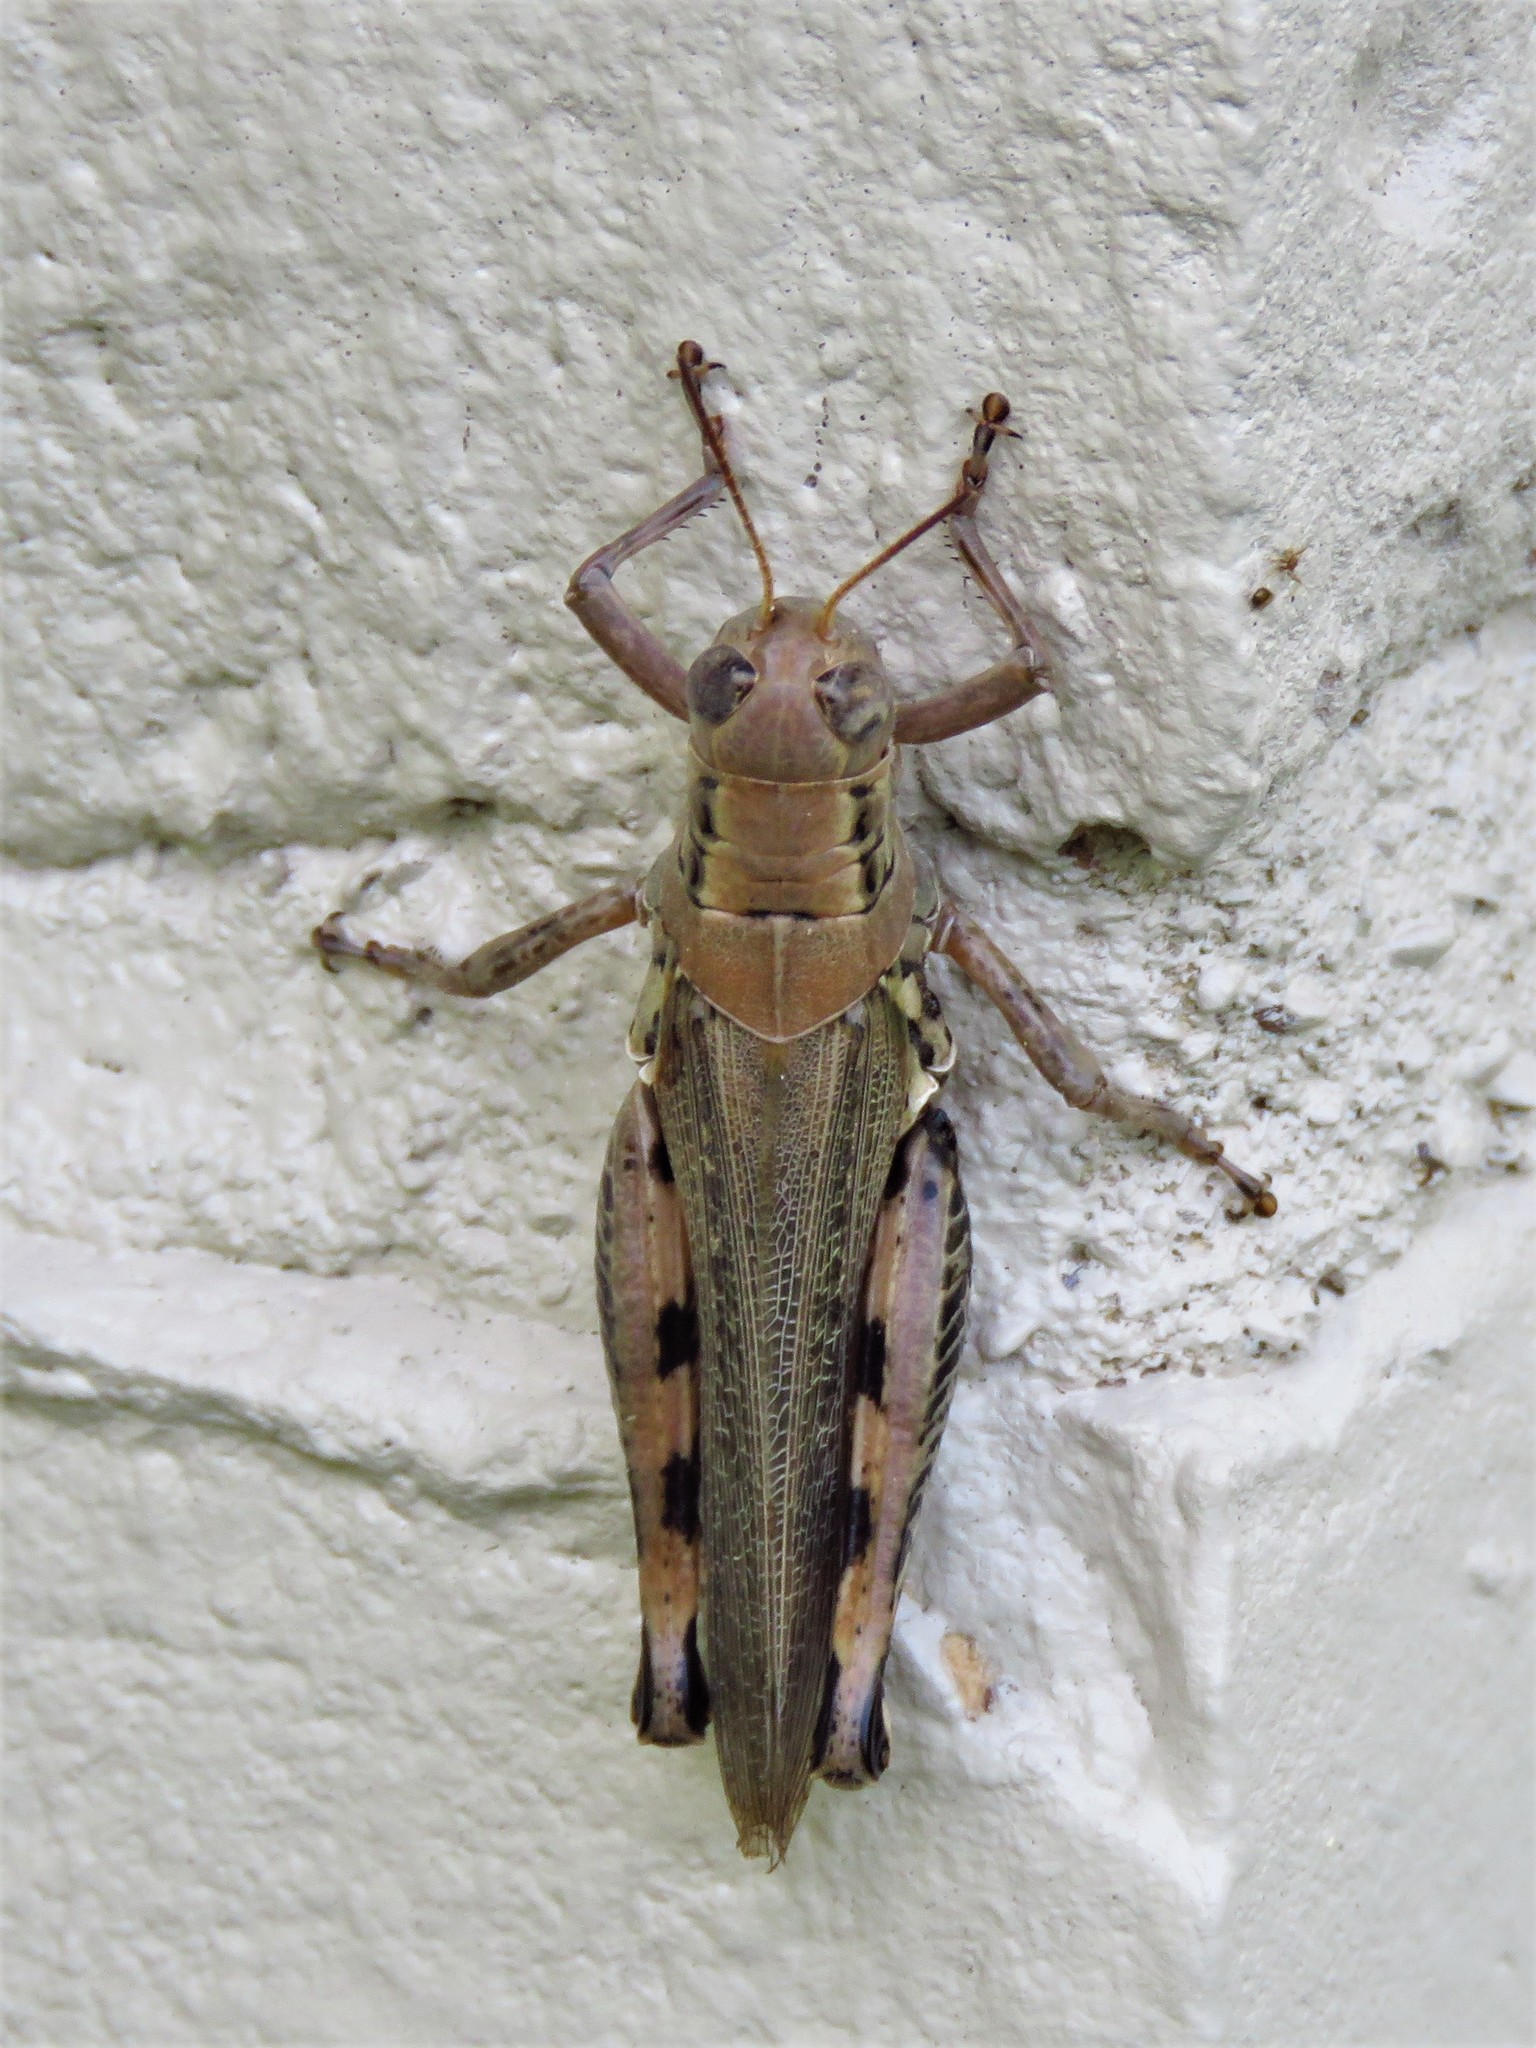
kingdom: Animalia
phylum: Arthropoda
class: Insecta
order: Orthoptera
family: Acrididae
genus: Melanoplus
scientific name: Melanoplus differentialis
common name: Differential grasshopper
